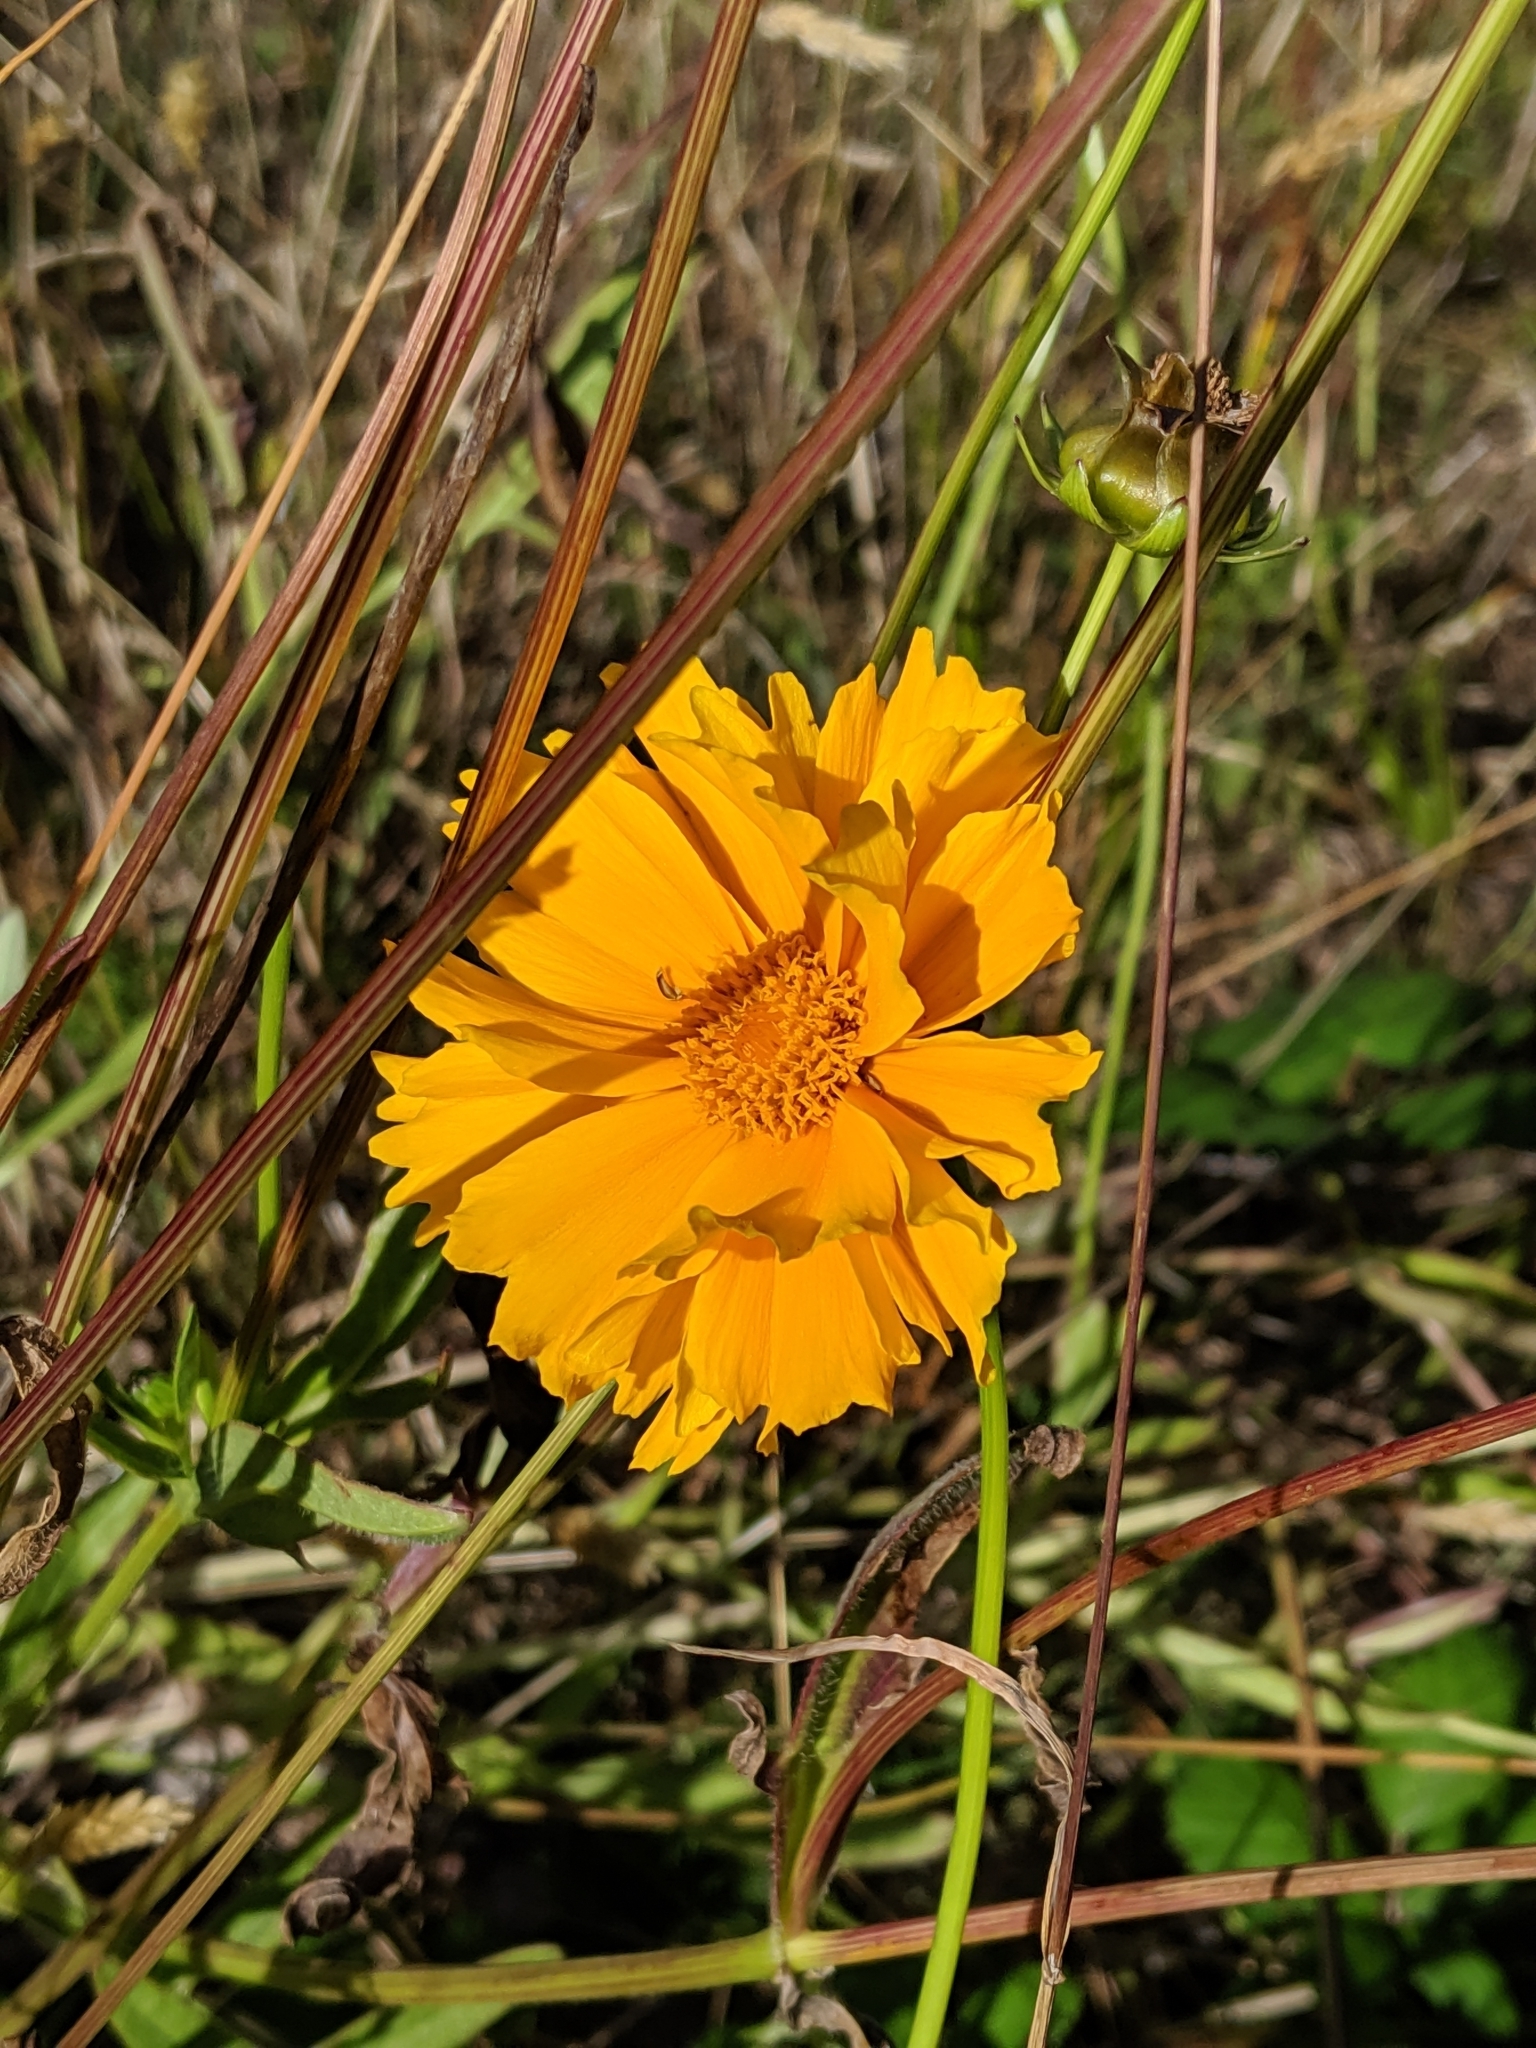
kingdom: Plantae
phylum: Tracheophyta
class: Magnoliopsida
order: Asterales
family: Asteraceae
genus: Coreopsis
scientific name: Coreopsis lanceolata
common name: Garden coreopsis
